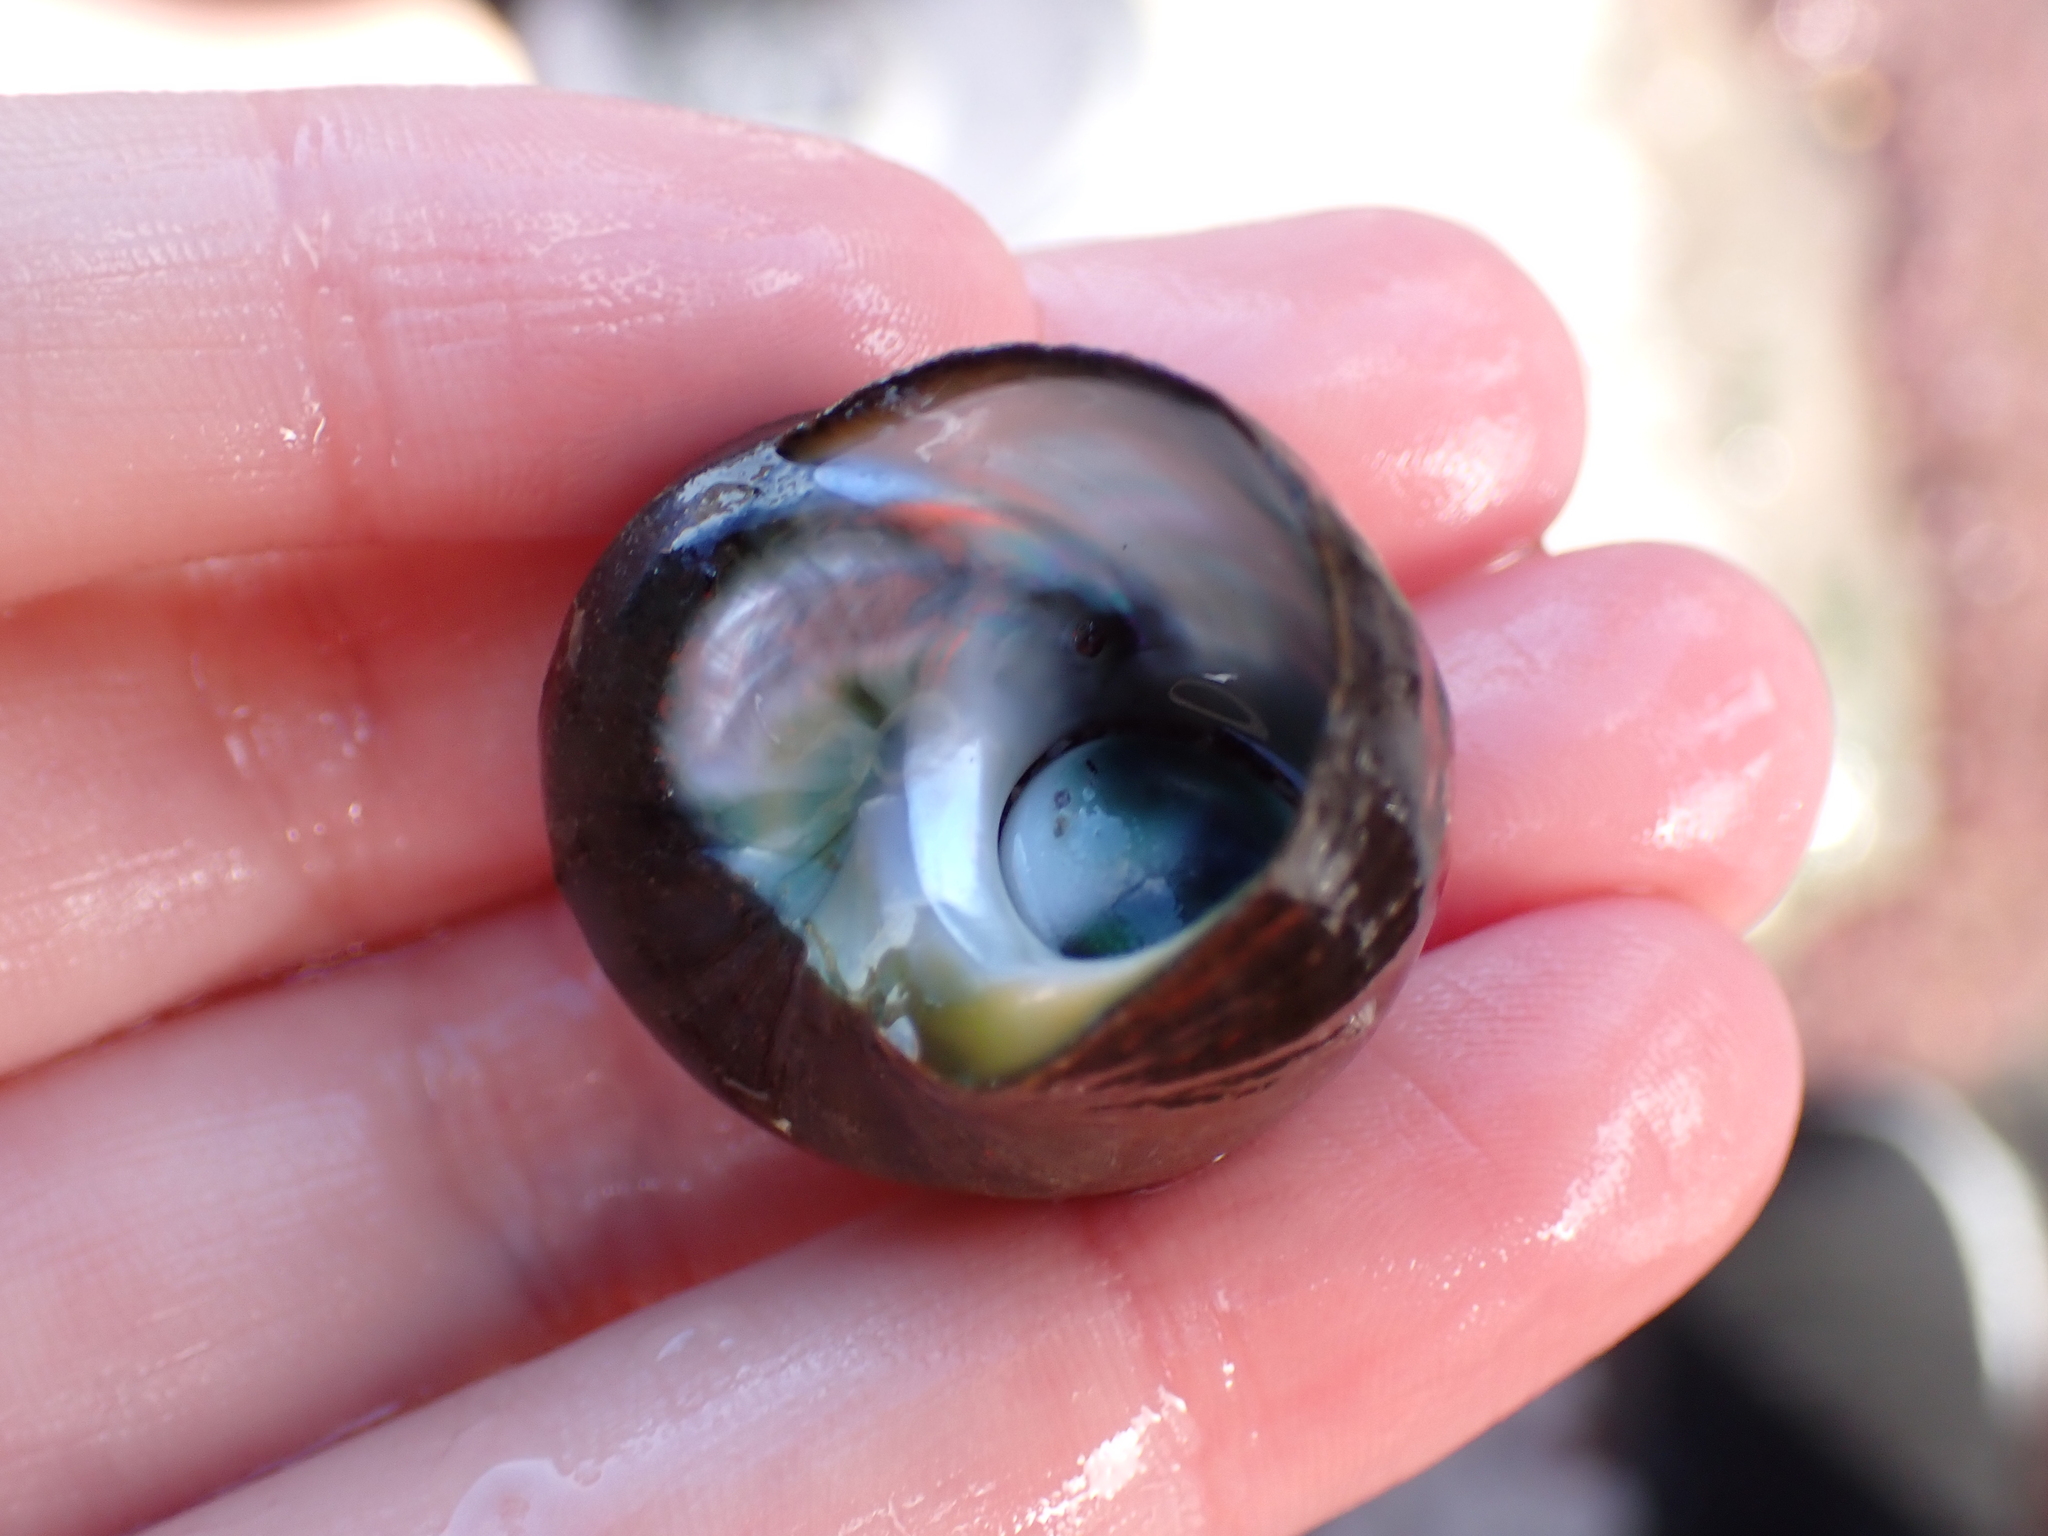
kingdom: Animalia
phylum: Mollusca
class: Gastropoda
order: Trochida
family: Turbinidae
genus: Lunella
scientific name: Lunella smaragda
